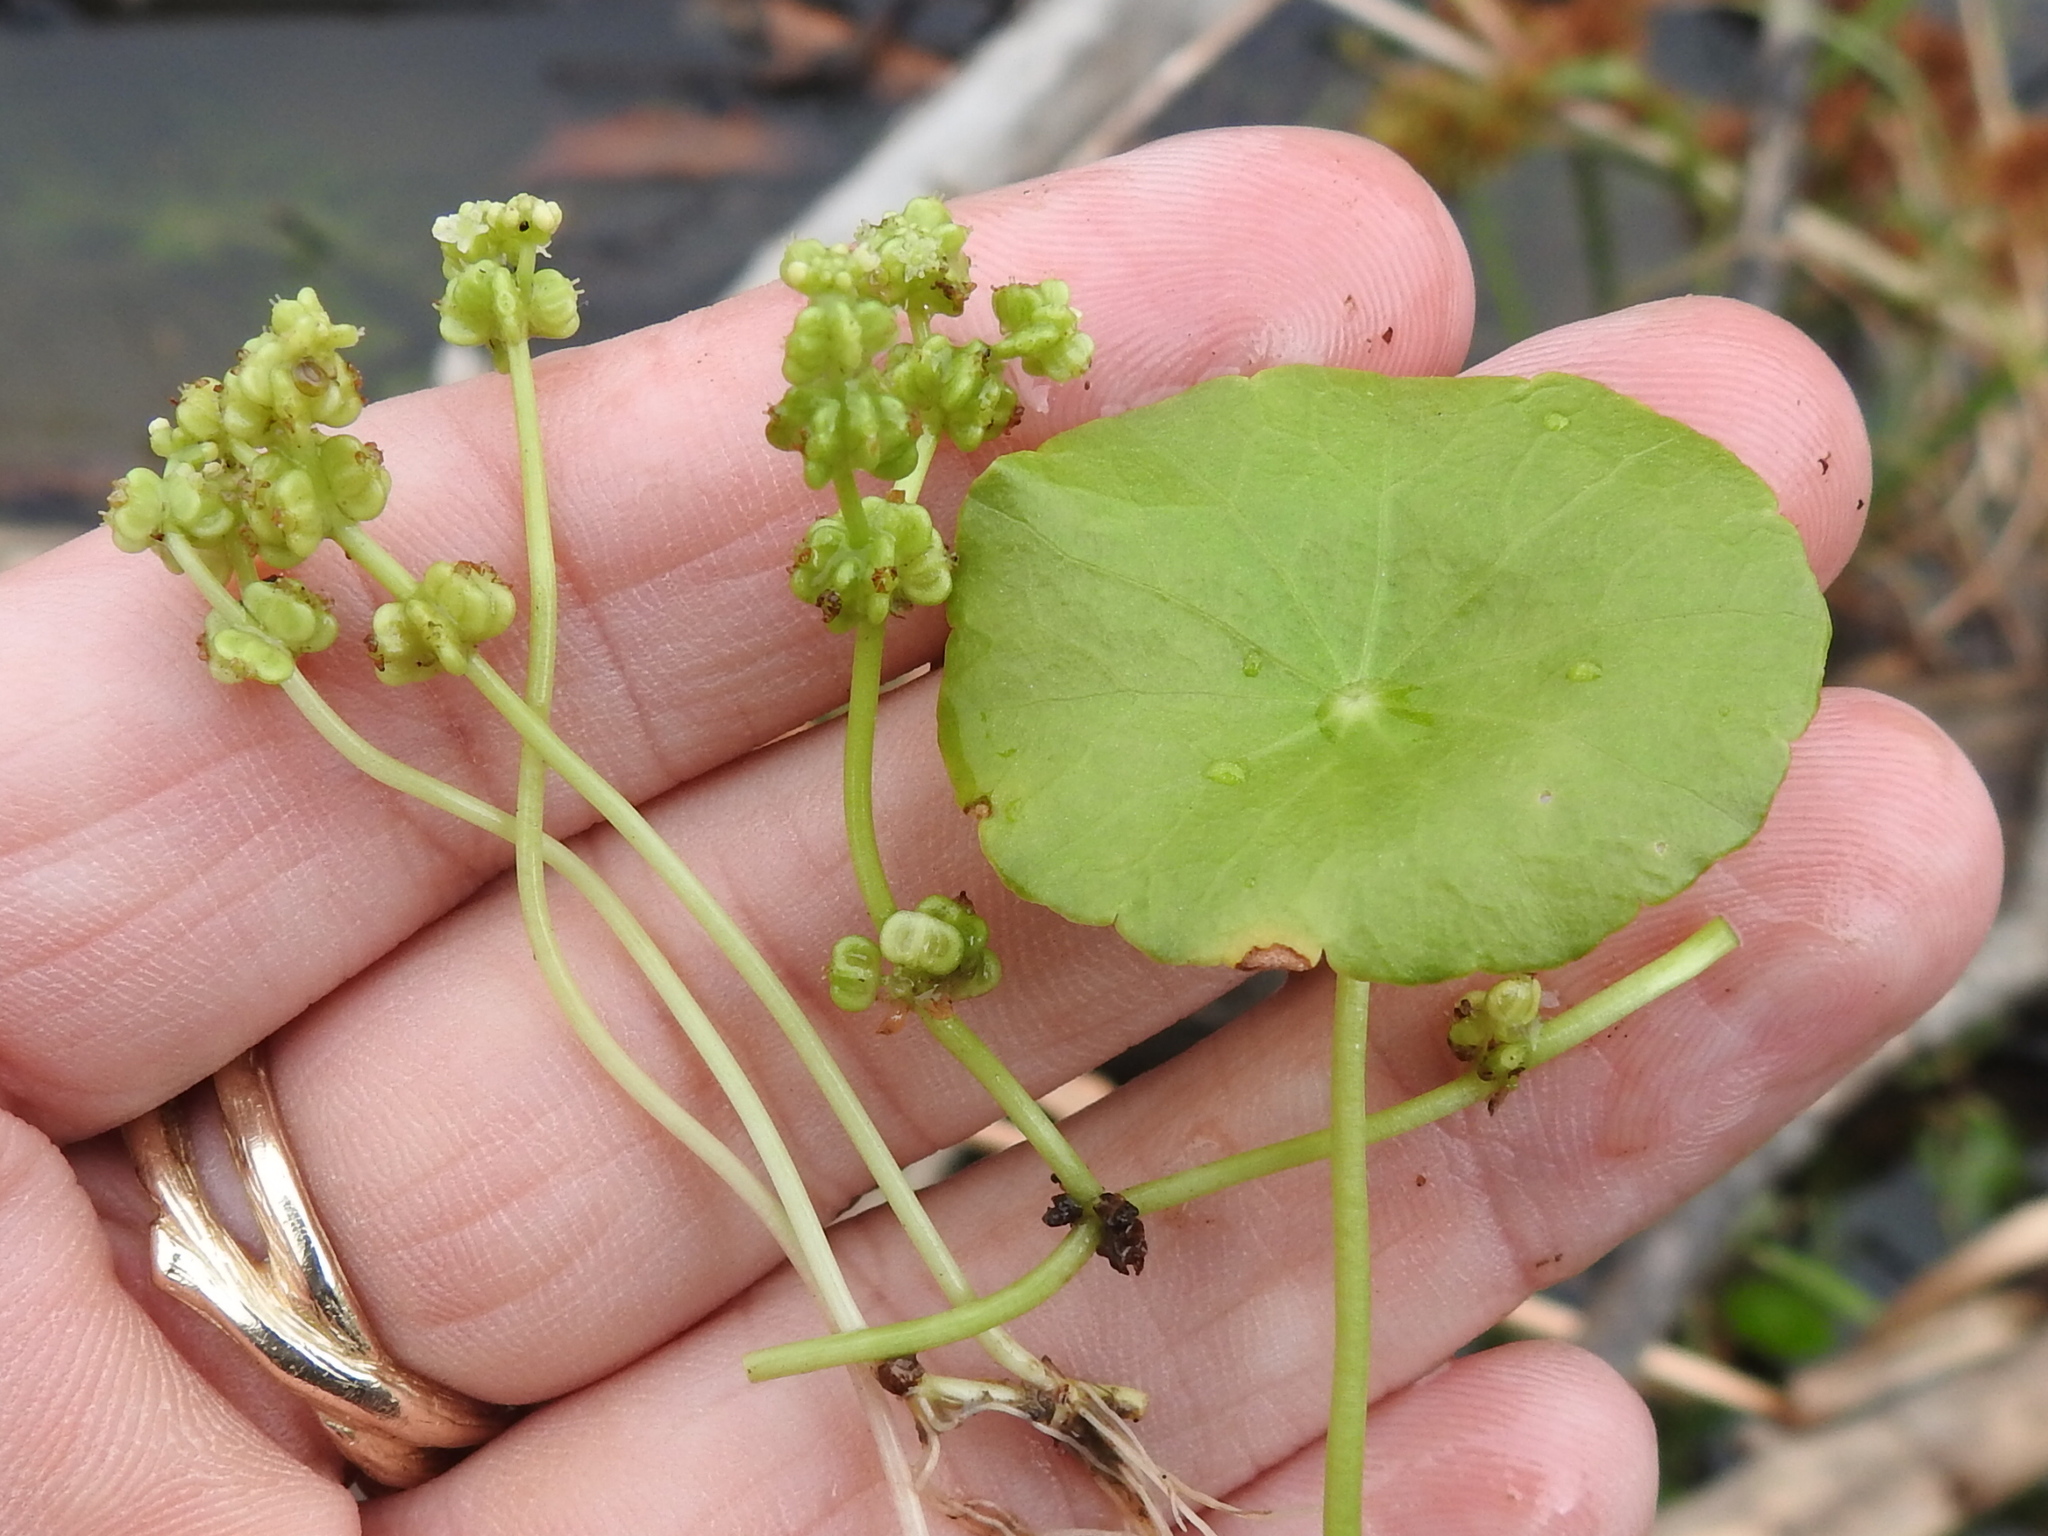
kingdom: Plantae
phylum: Tracheophyta
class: Magnoliopsida
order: Apiales
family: Araliaceae
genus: Hydrocotyle
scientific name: Hydrocotyle verticillata
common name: Whorled marshpennywort
